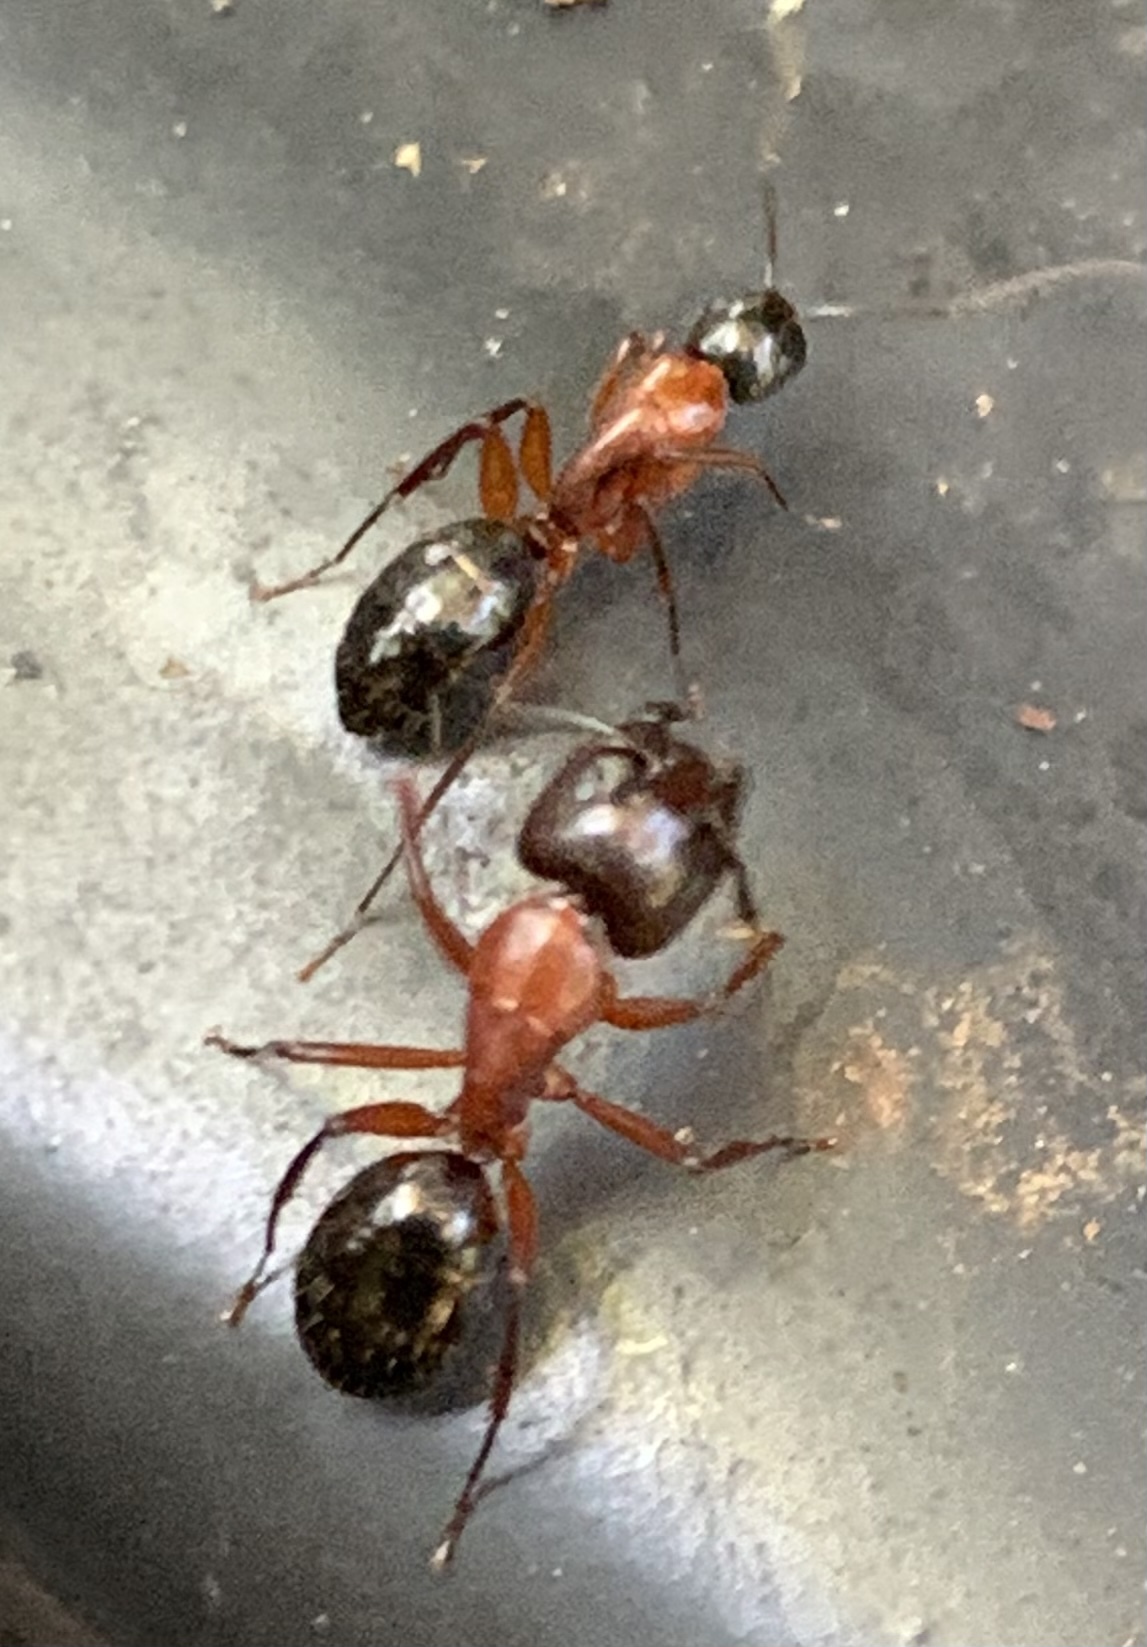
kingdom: Animalia
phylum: Arthropoda
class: Insecta
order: Hymenoptera
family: Formicidae
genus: Camponotus
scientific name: Camponotus texanus
